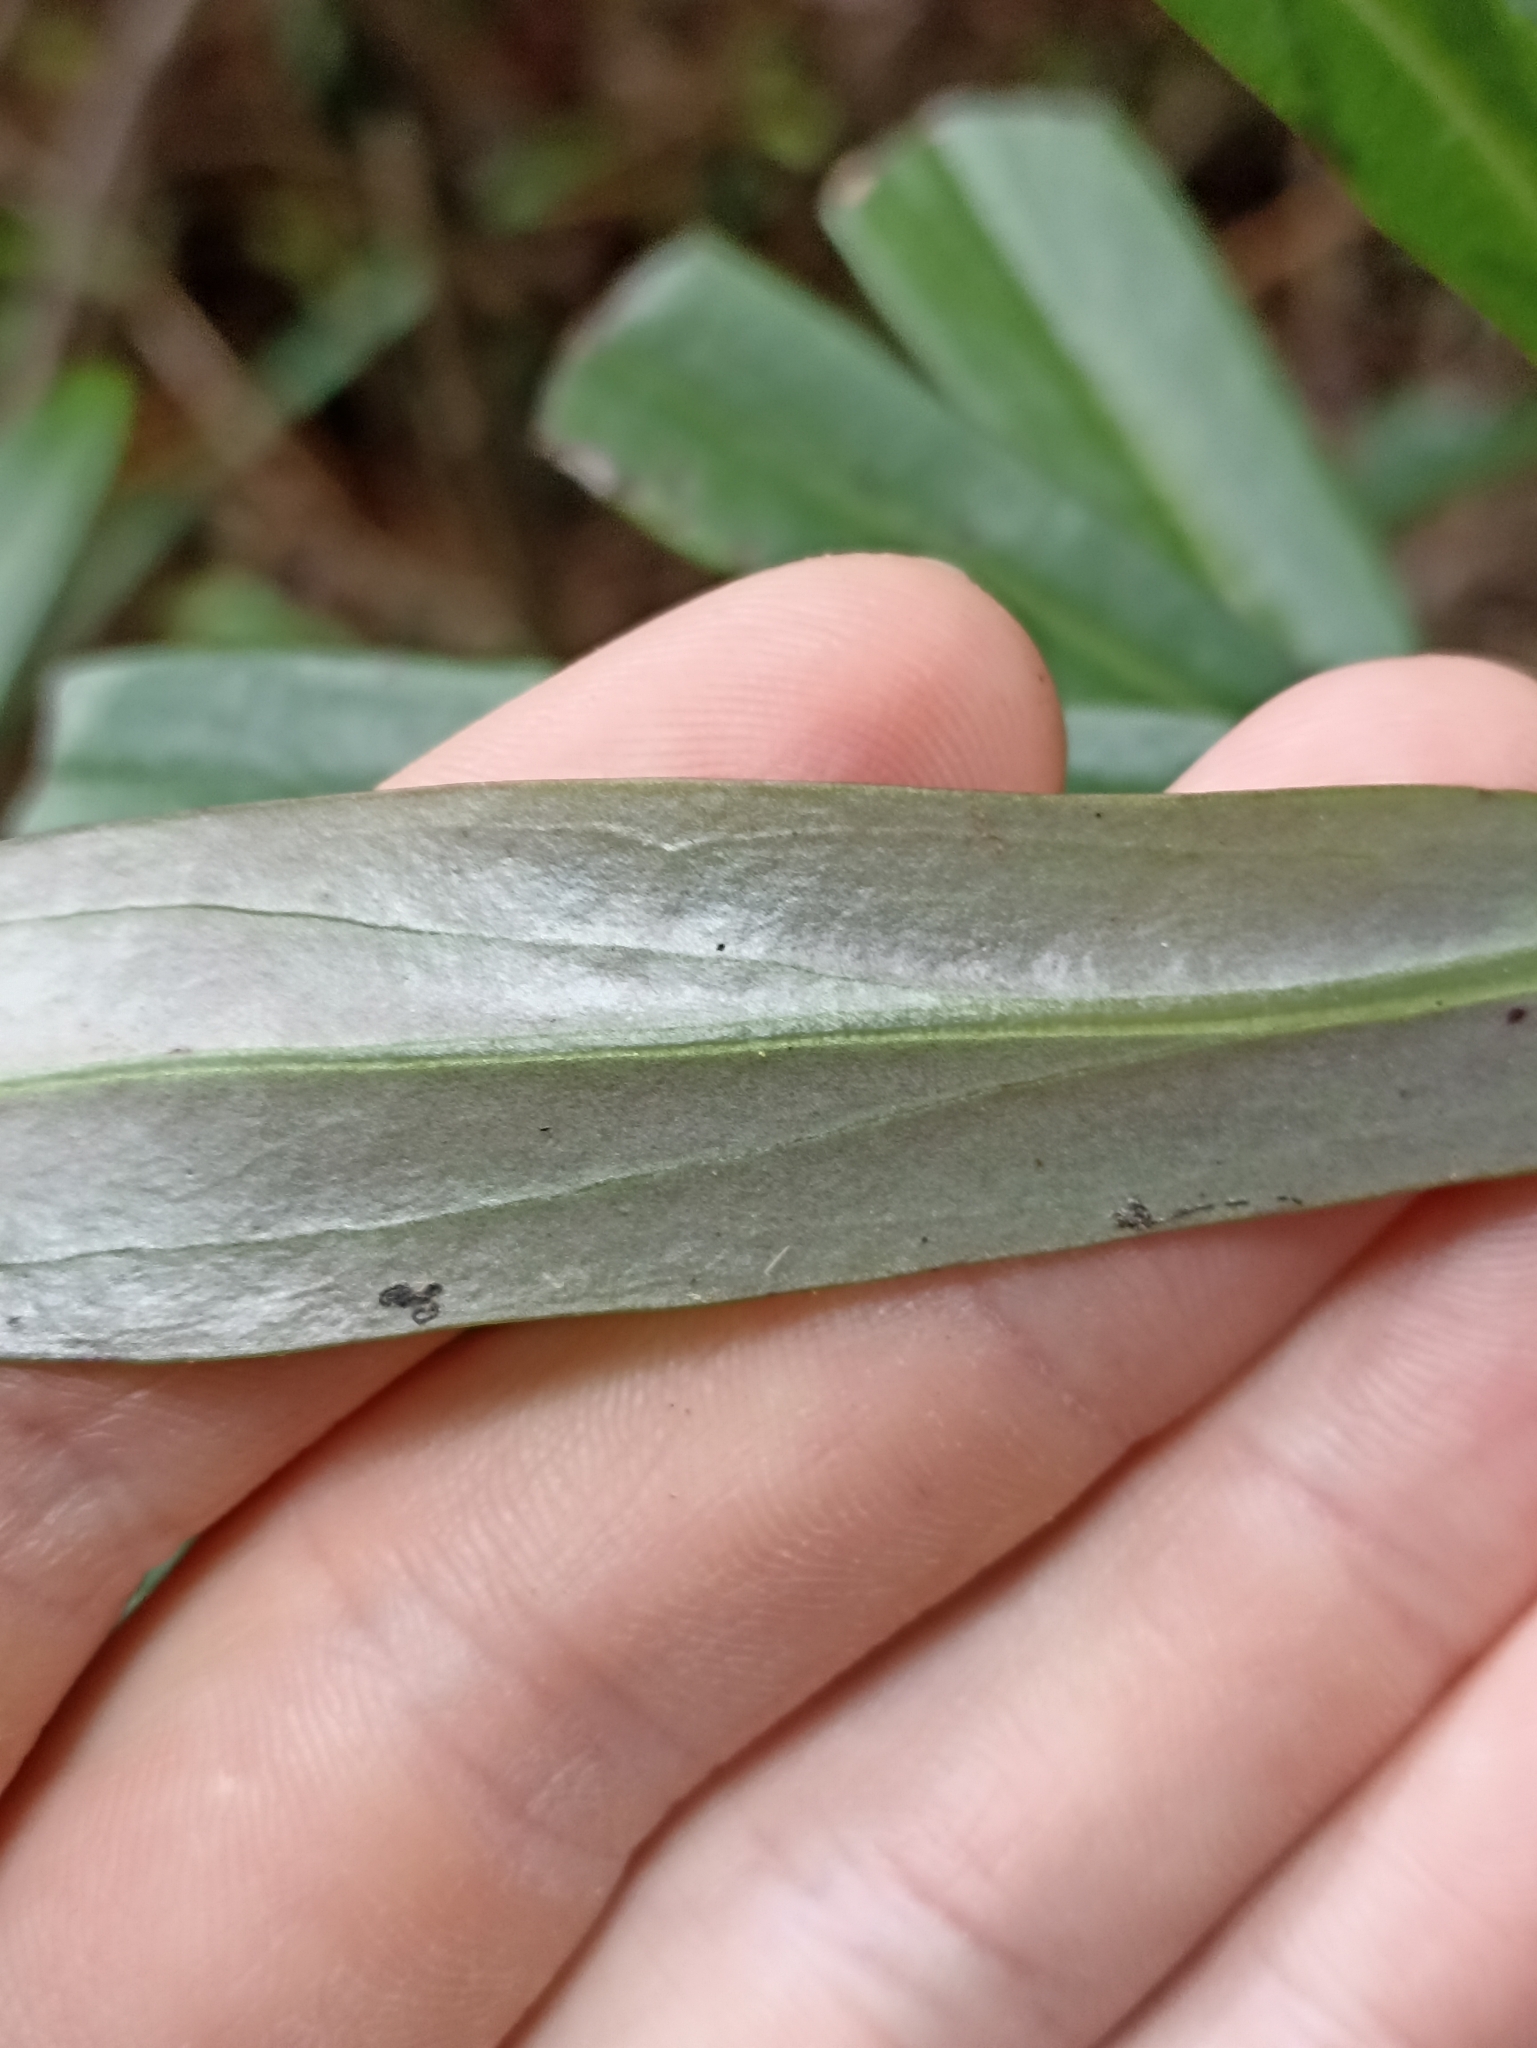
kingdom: Plantae
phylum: Tracheophyta
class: Magnoliopsida
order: Asterales
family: Asteraceae
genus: Brachyglottis
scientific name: Brachyglottis kirkii
